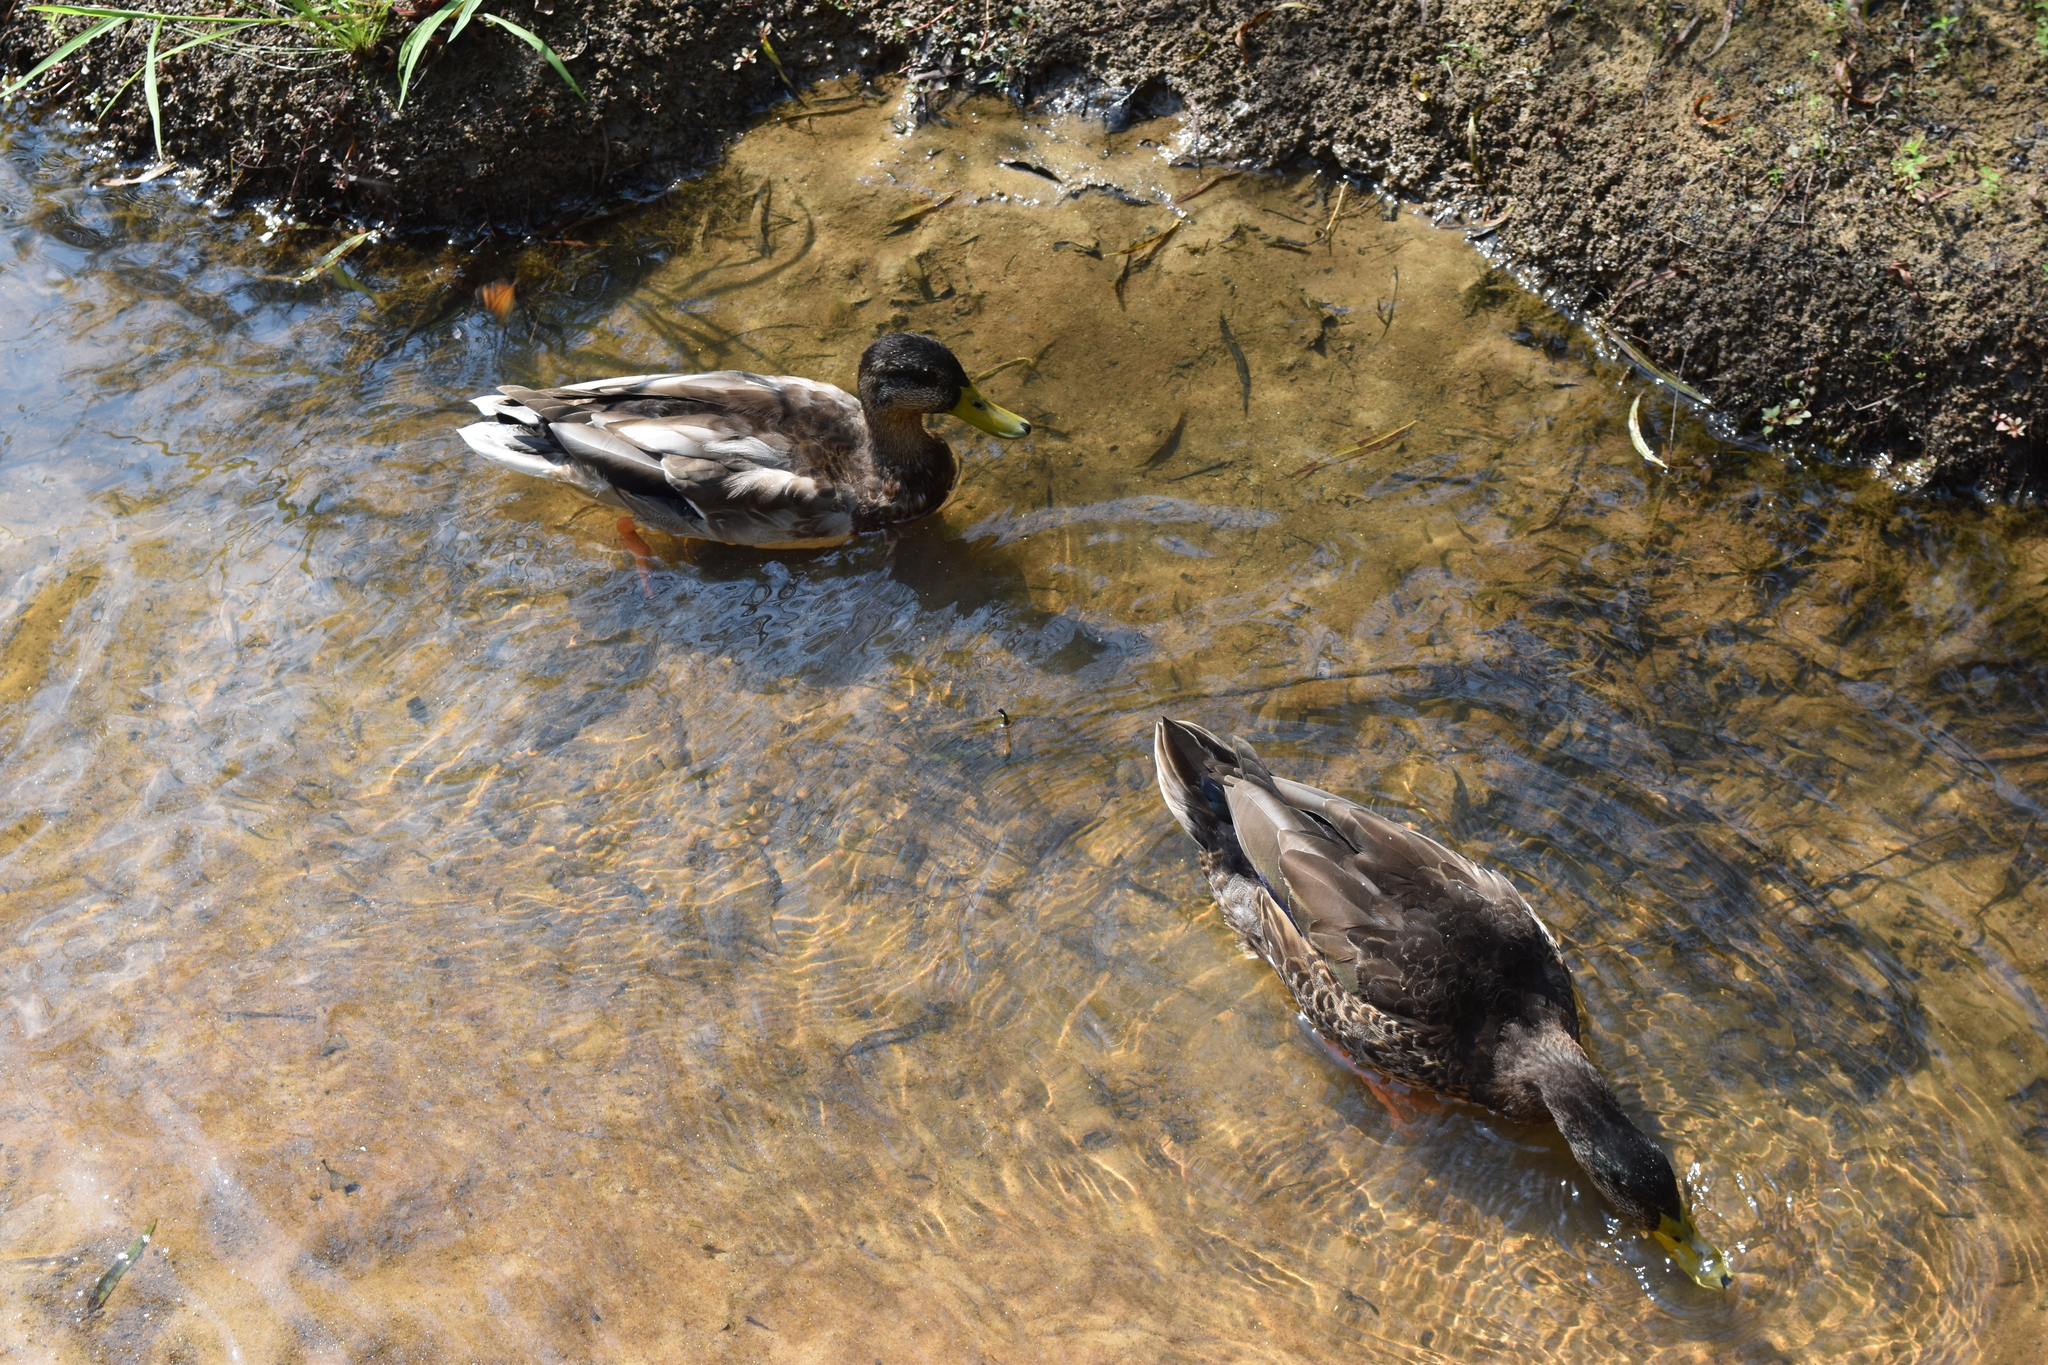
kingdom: Animalia
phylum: Chordata
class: Aves
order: Anseriformes
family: Anatidae
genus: Anas
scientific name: Anas platyrhynchos
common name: Mallard
